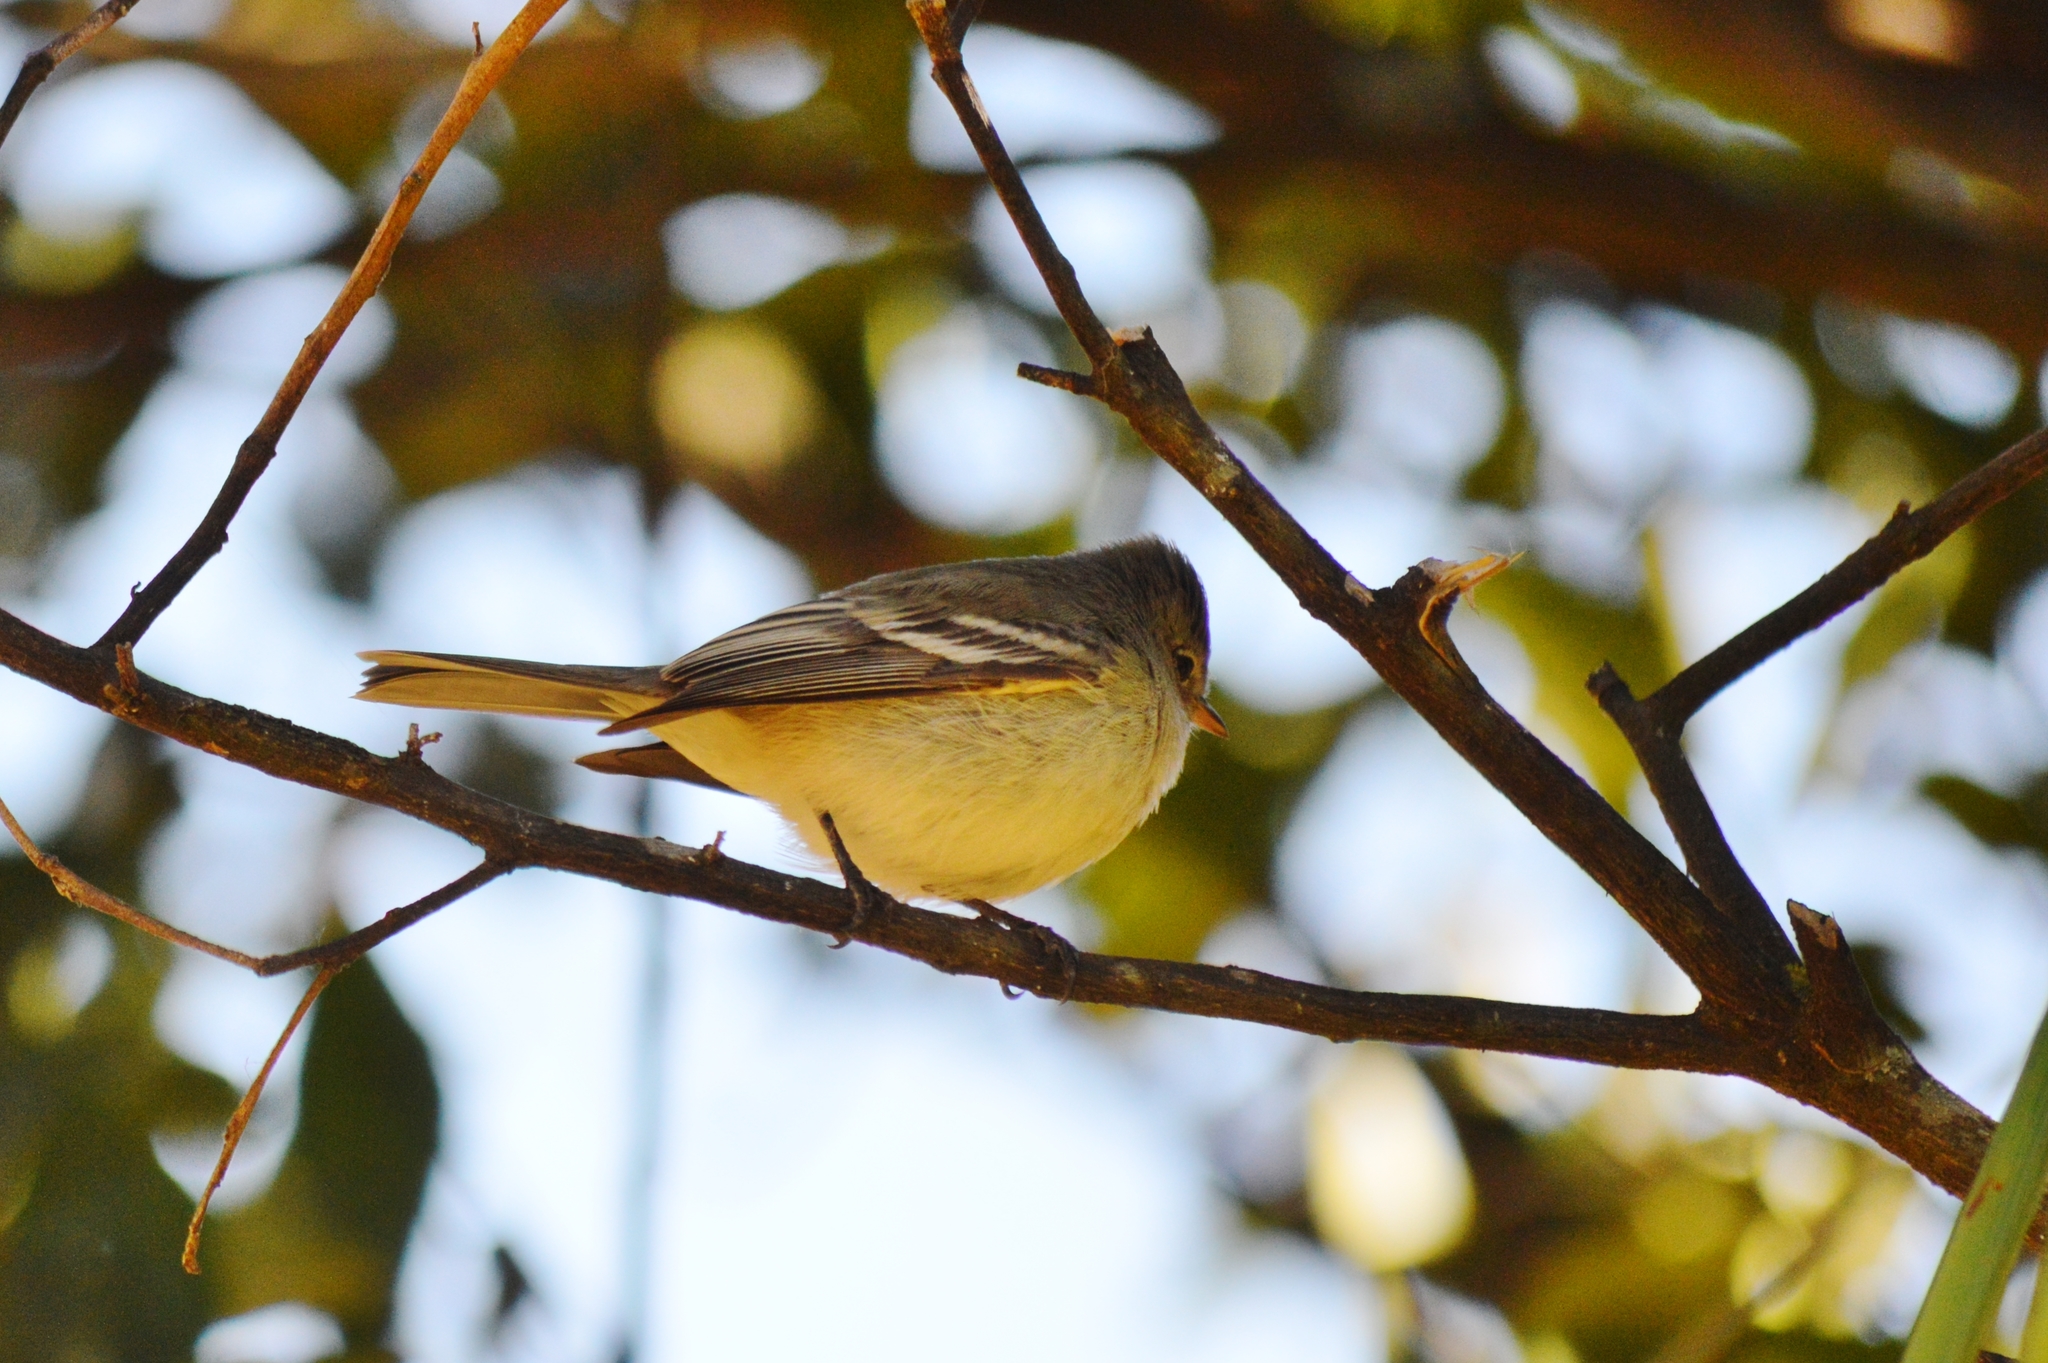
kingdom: Animalia
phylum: Chordata
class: Aves
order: Passeriformes
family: Tyrannidae
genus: Camptostoma
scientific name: Camptostoma obsoletum
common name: Southern beardless-tyrannulet
